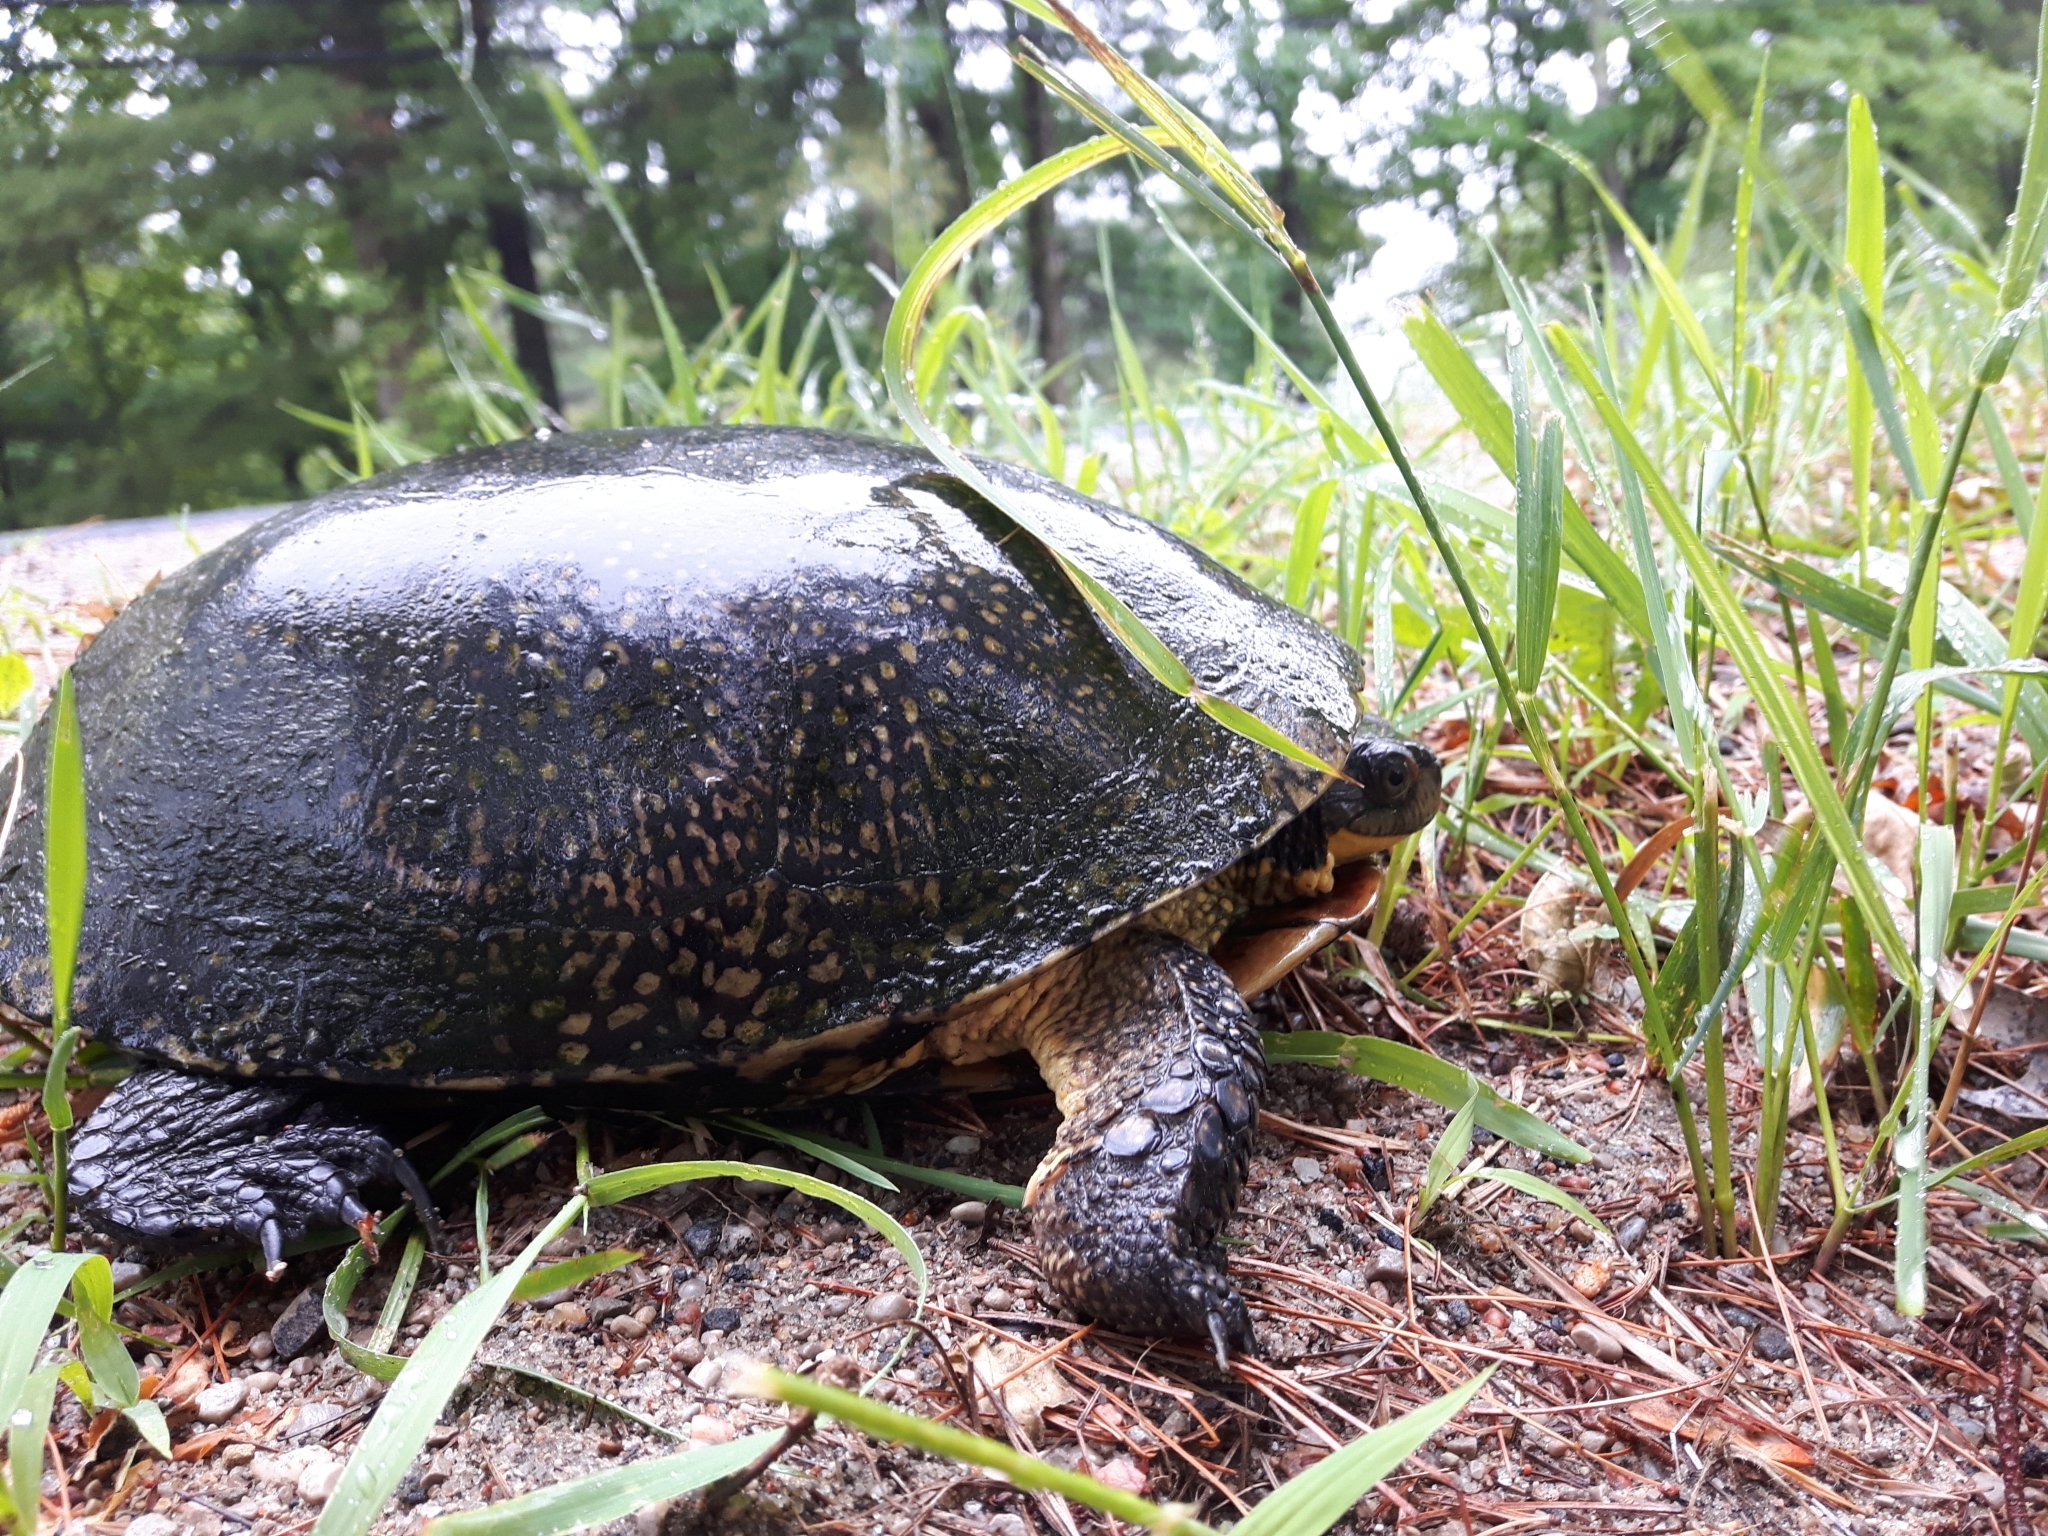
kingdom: Animalia
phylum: Chordata
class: Testudines
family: Emydidae
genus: Emys
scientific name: Emys blandingii
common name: Blanding's turtle
